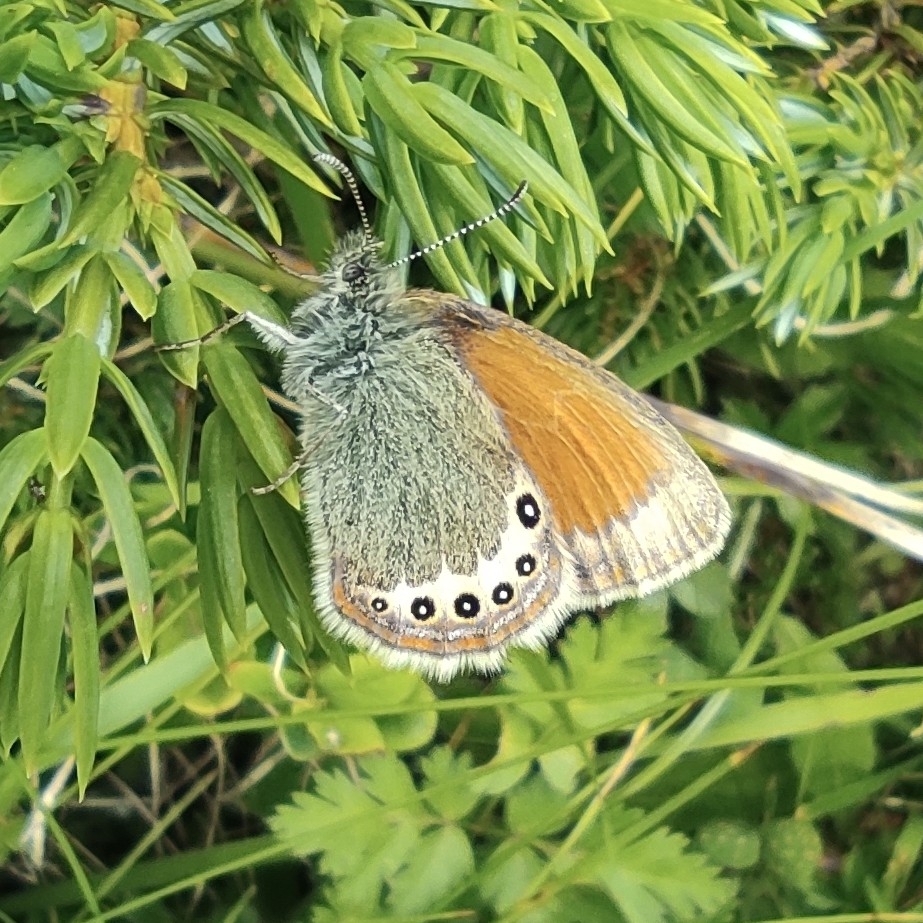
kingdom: Animalia
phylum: Arthropoda
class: Insecta
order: Lepidoptera
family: Nymphalidae
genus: Coenonympha
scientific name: Coenonympha
